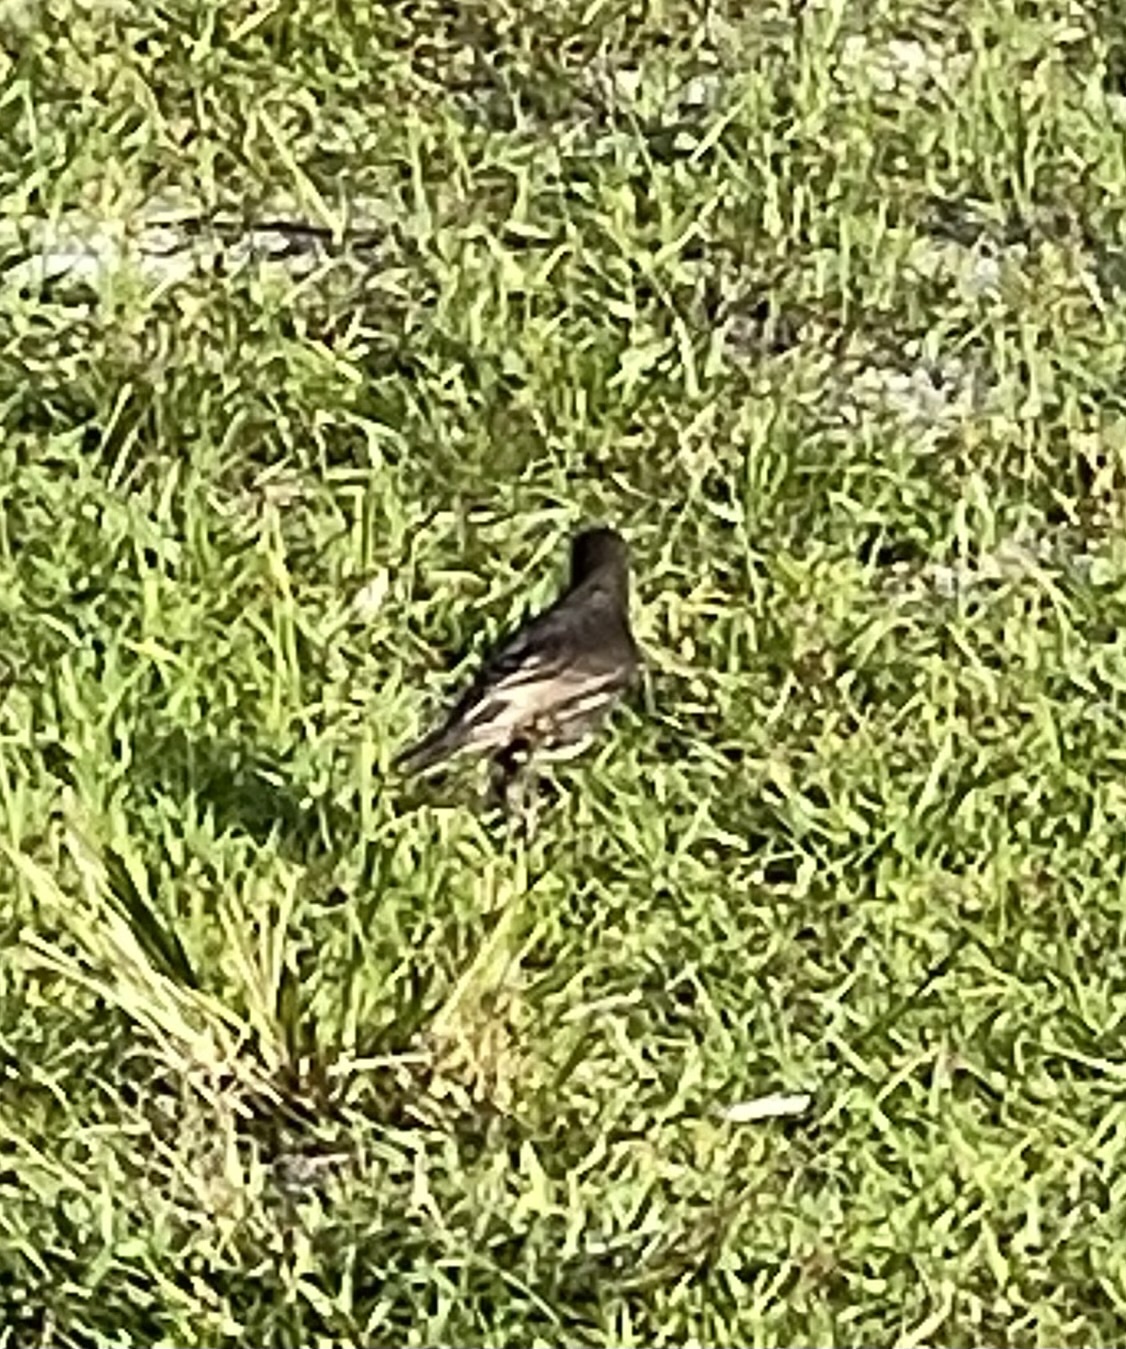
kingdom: Animalia
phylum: Chordata
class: Aves
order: Passeriformes
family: Sturnidae
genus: Sturnus
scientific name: Sturnus vulgaris
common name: Common starling
